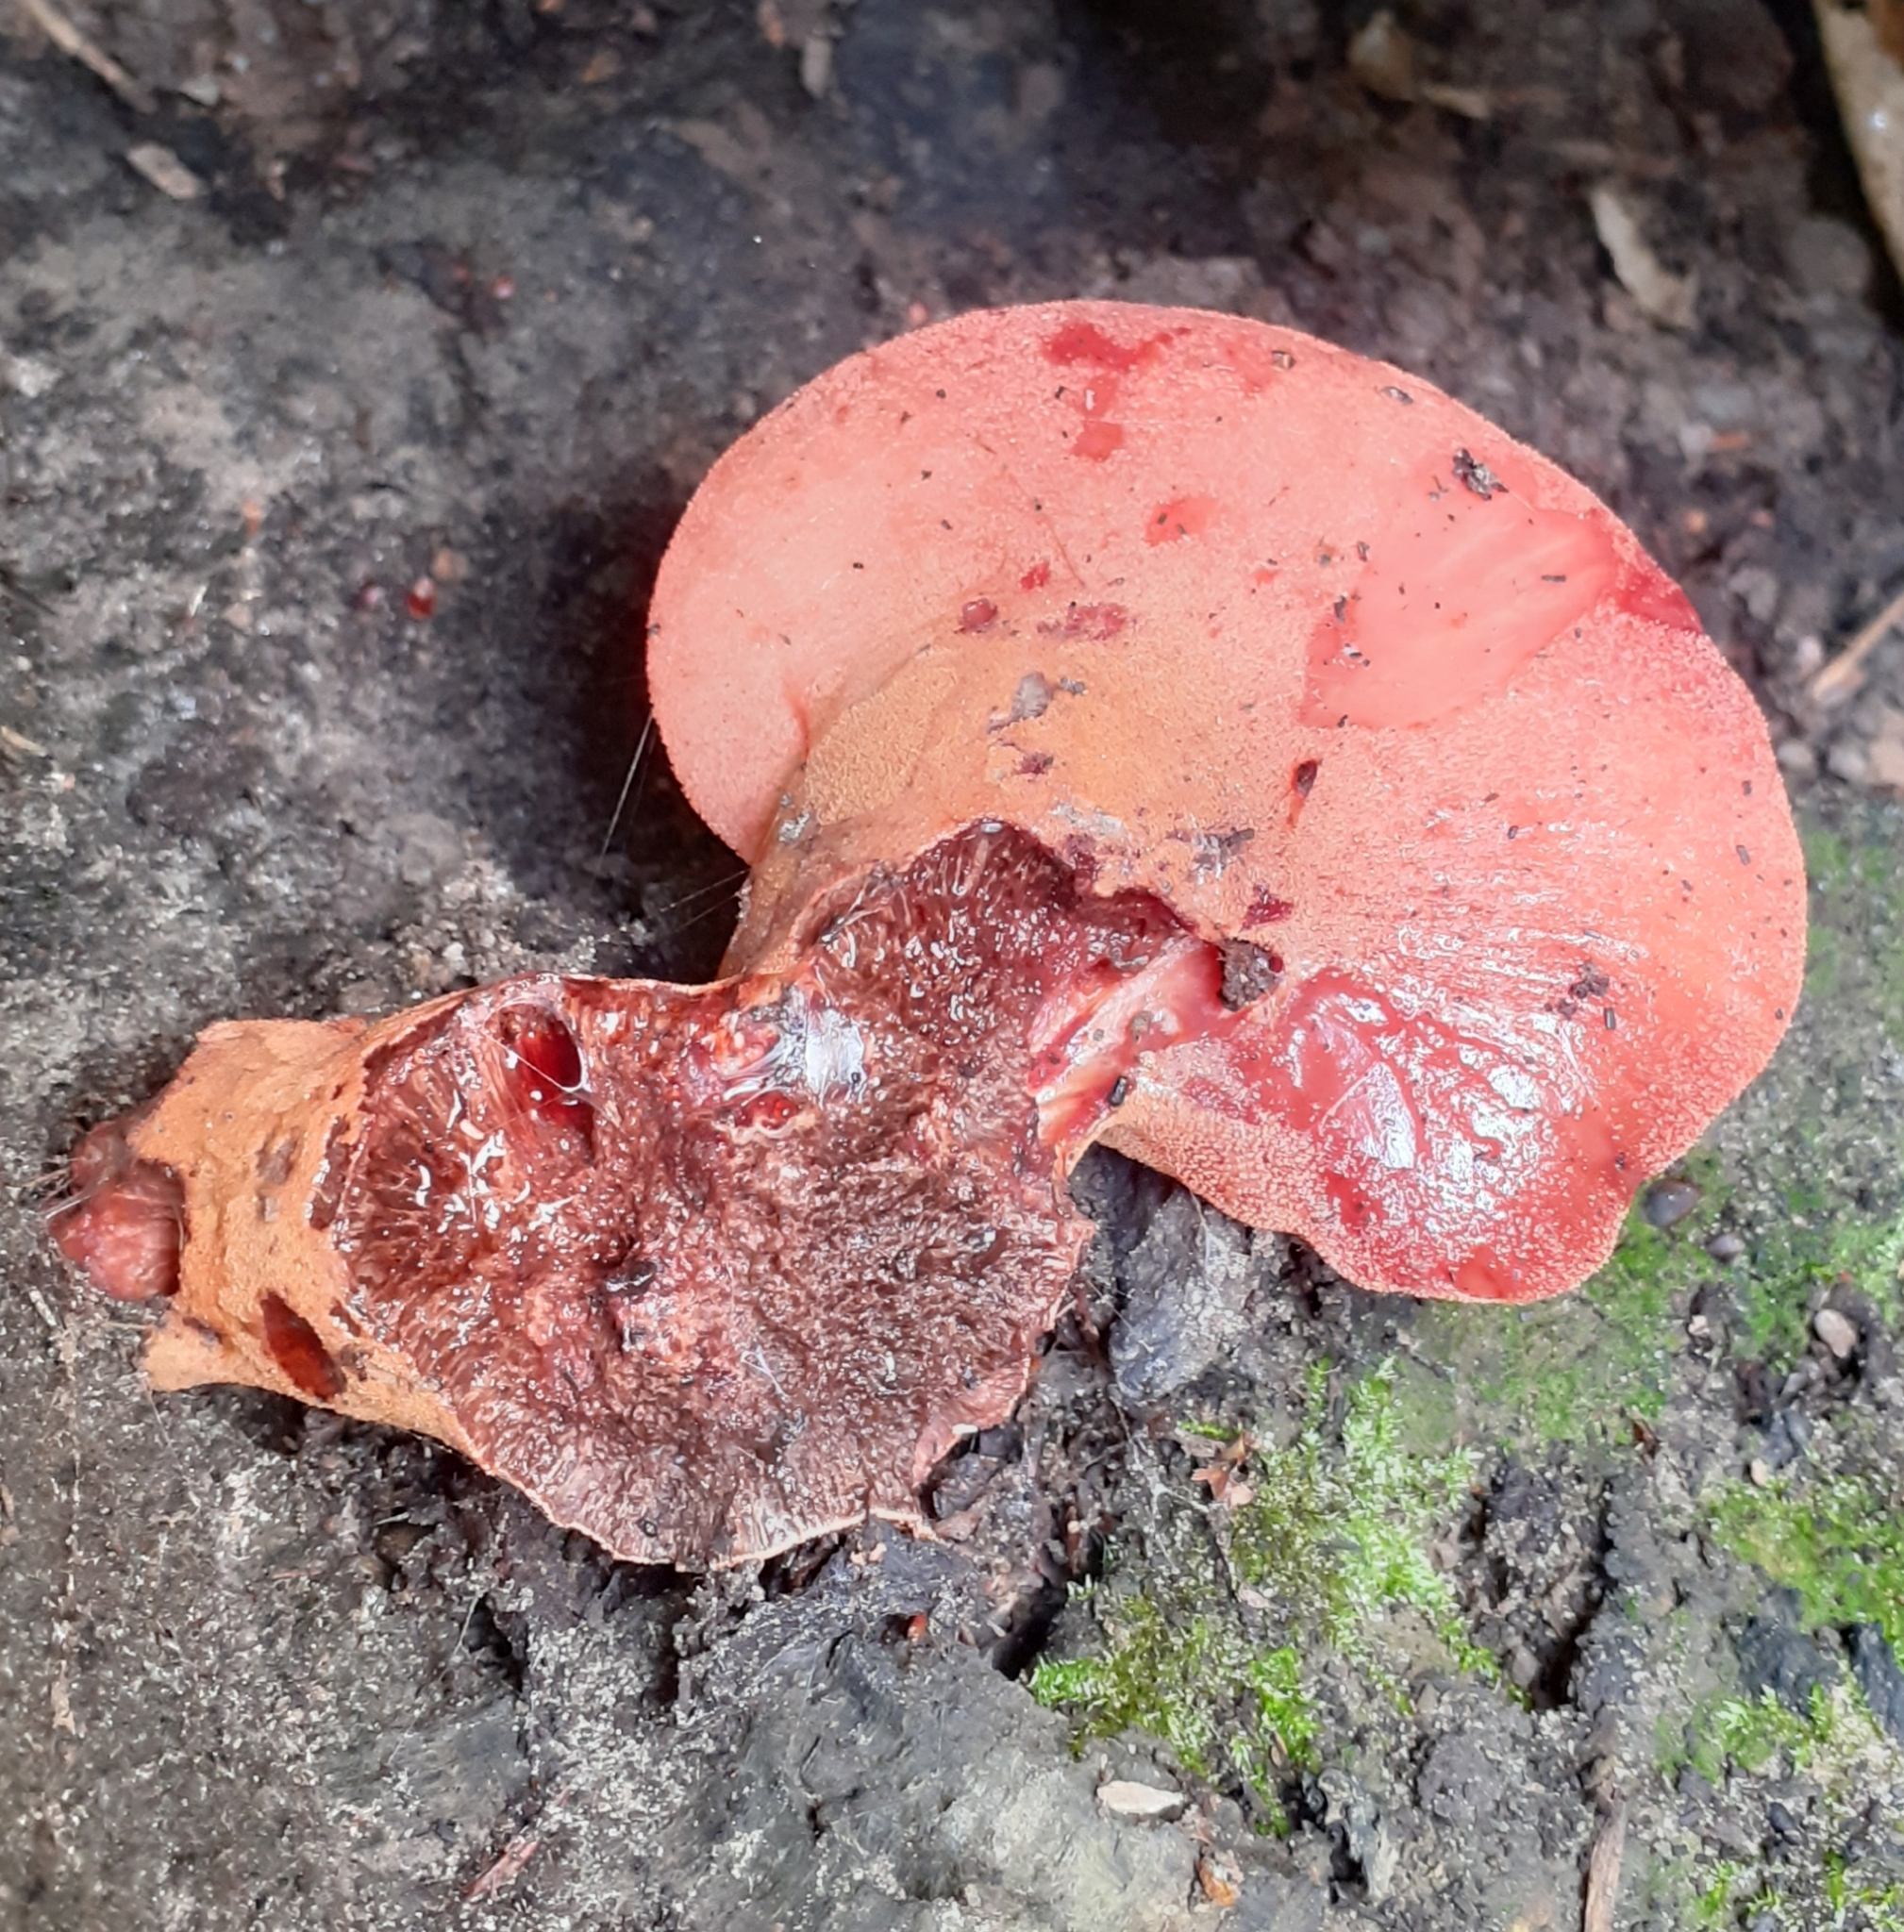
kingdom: Fungi
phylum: Basidiomycota
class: Agaricomycetes
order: Agaricales
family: Fistulinaceae
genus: Fistulina
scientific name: Fistulina hepatica
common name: Beef-steak fungus
